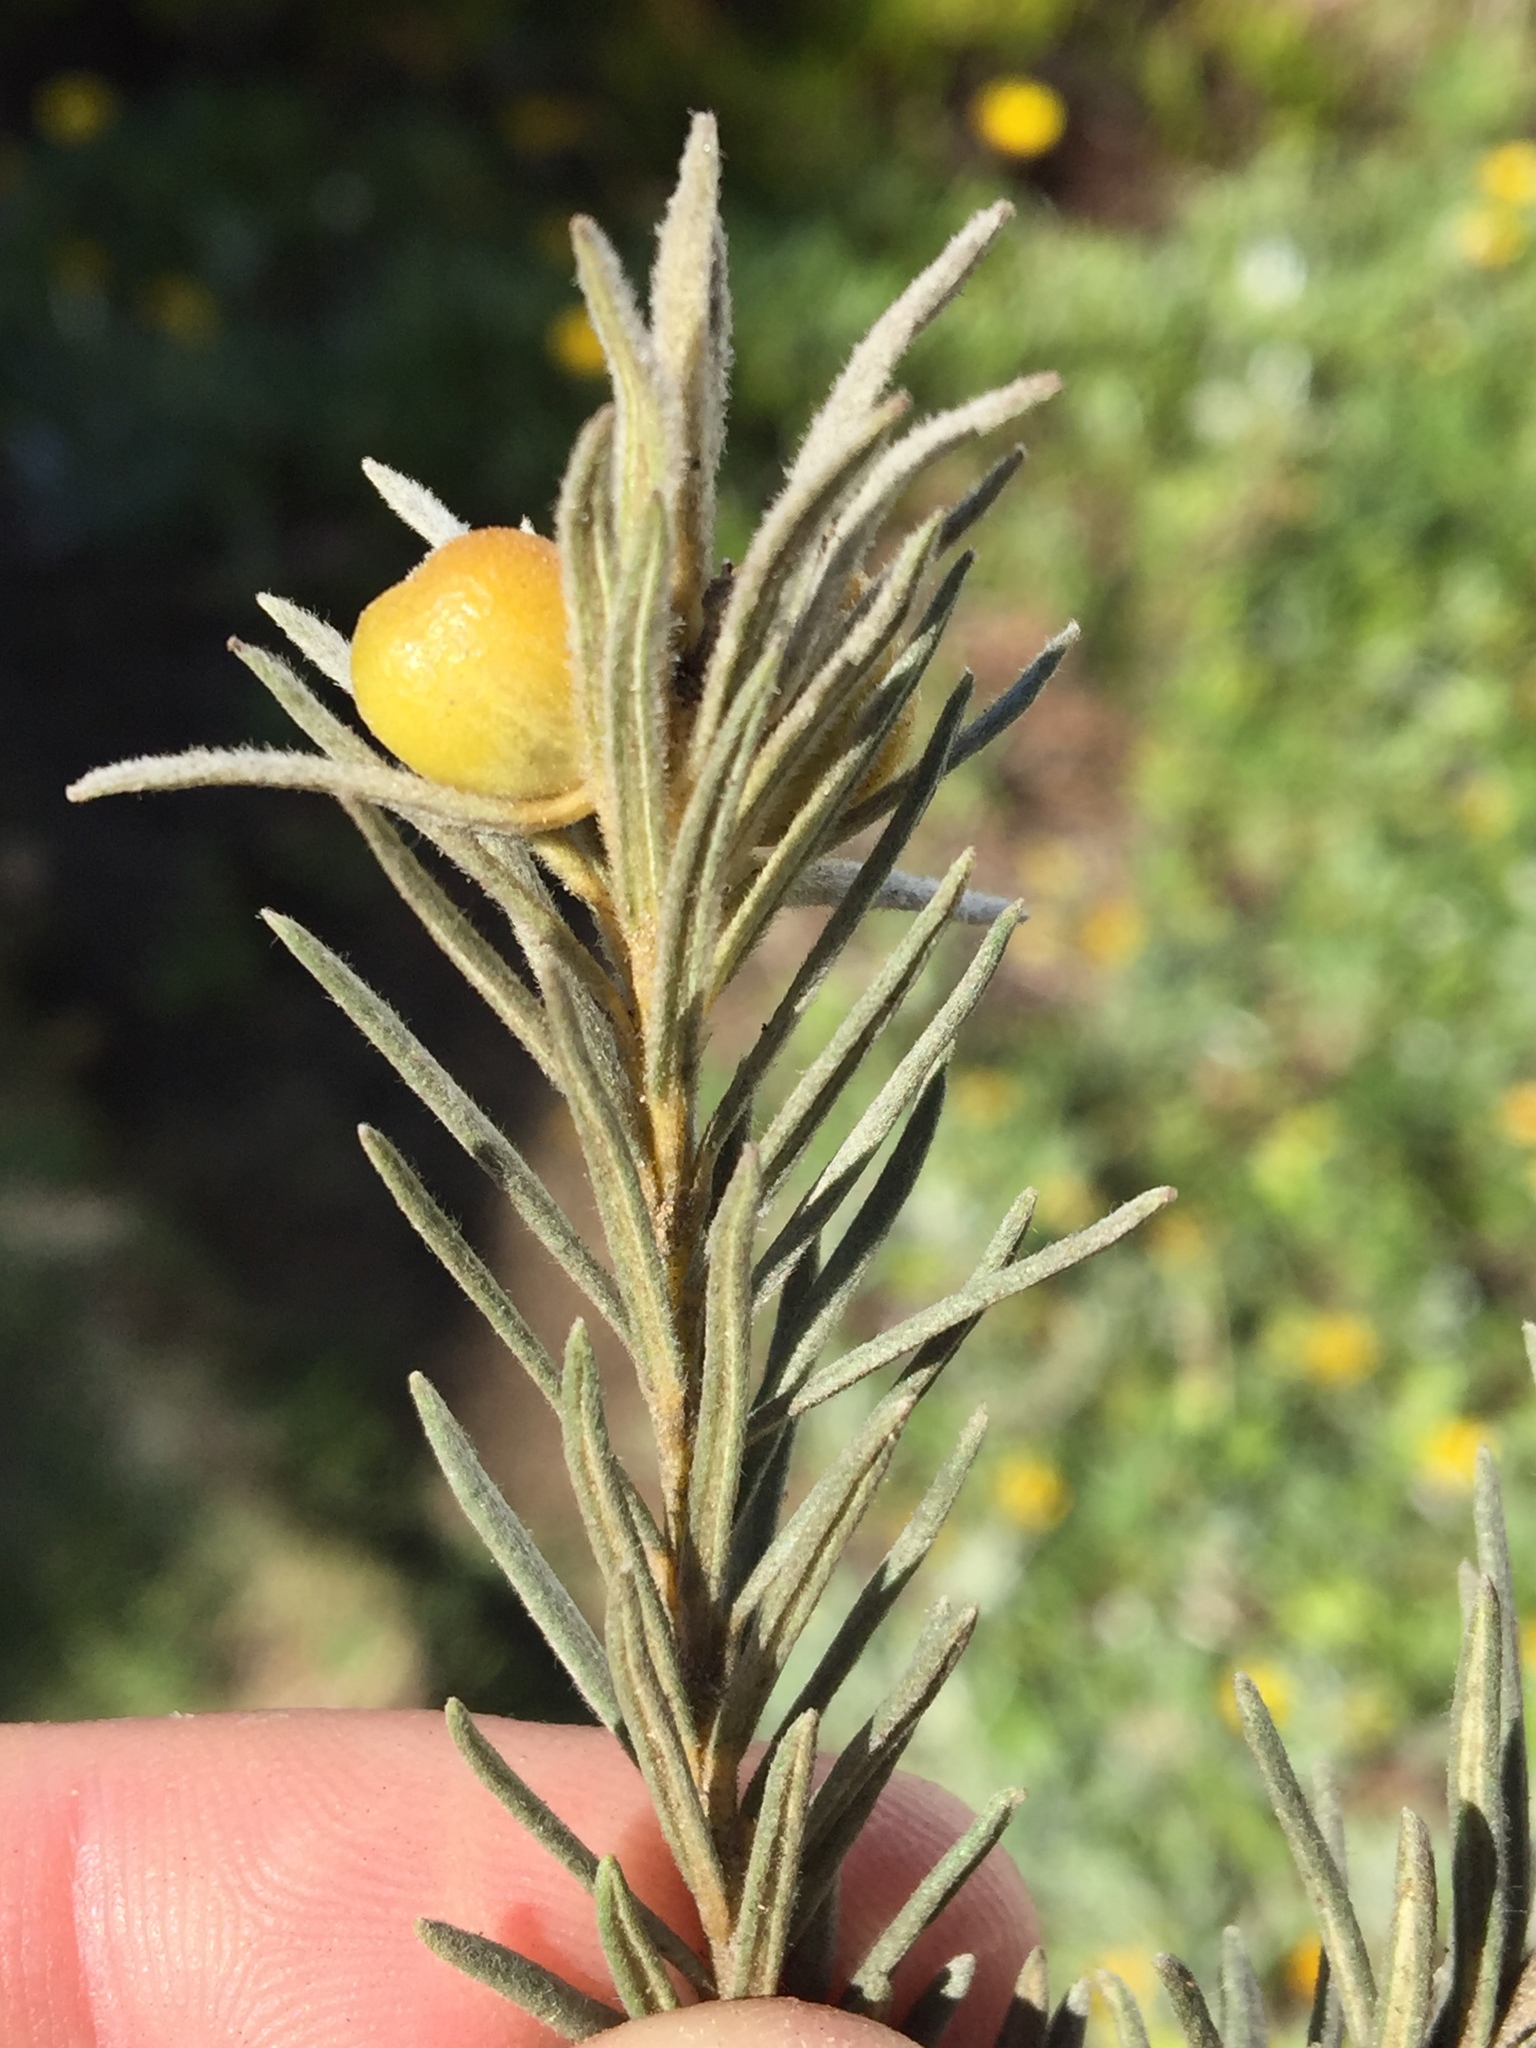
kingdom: Plantae
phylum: Tracheophyta
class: Magnoliopsida
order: Rosales
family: Rhamnaceae
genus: Phylica
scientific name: Phylica velutina
